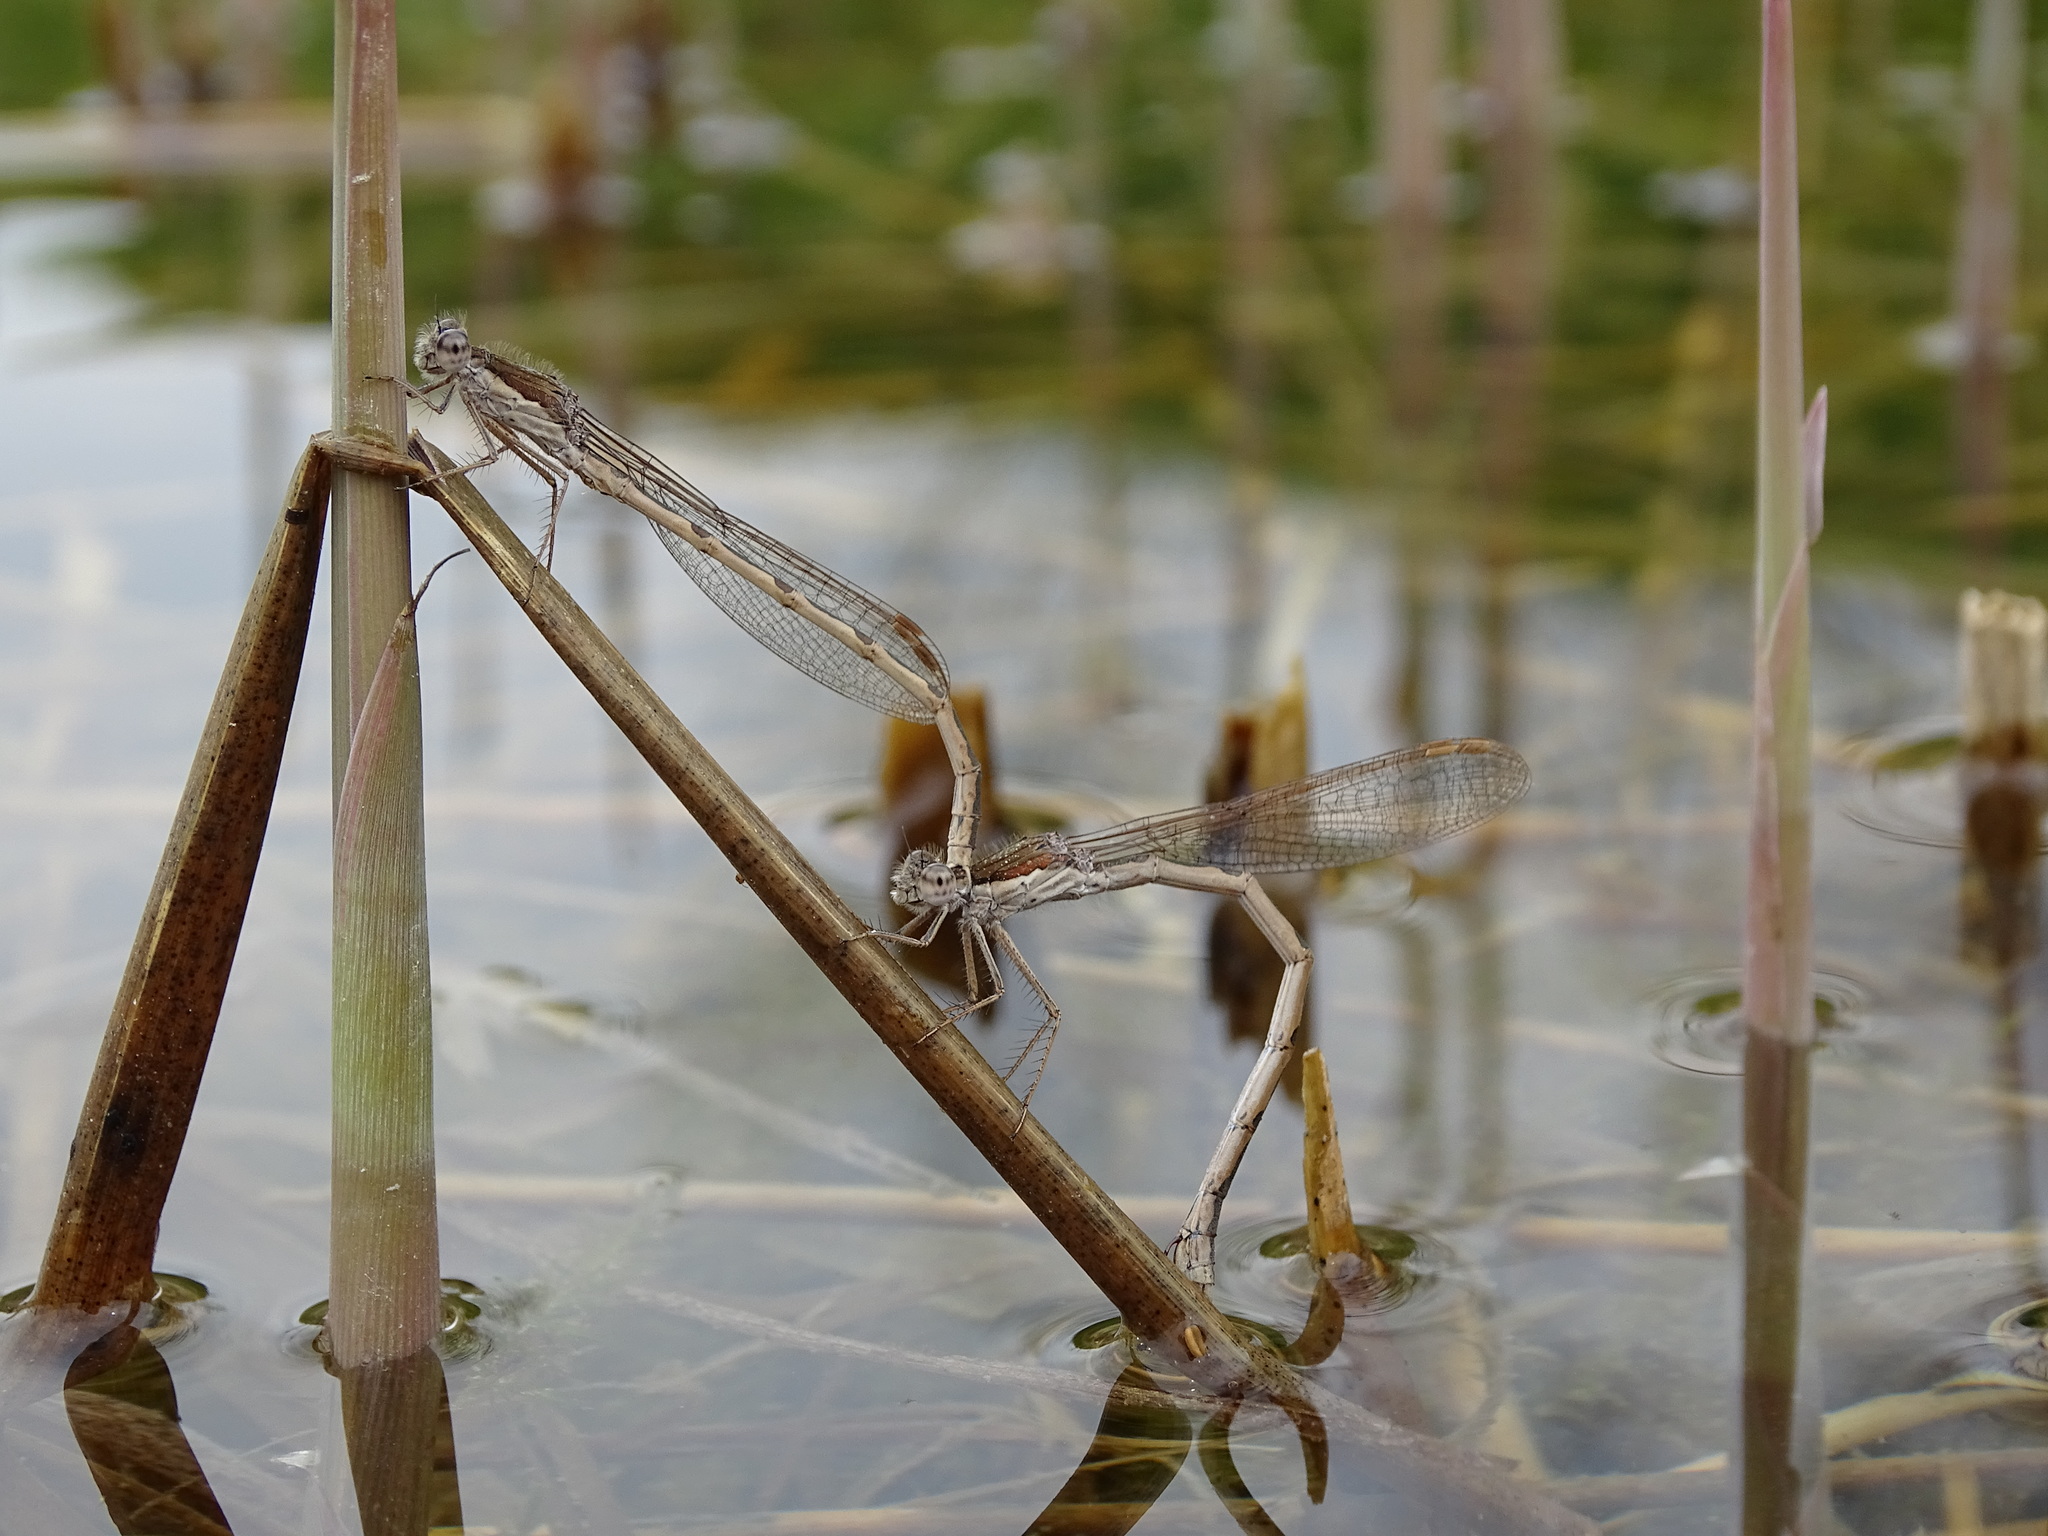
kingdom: Animalia
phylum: Arthropoda
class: Insecta
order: Odonata
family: Lestidae
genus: Sympecma
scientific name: Sympecma fusca
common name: Common winter damsel
